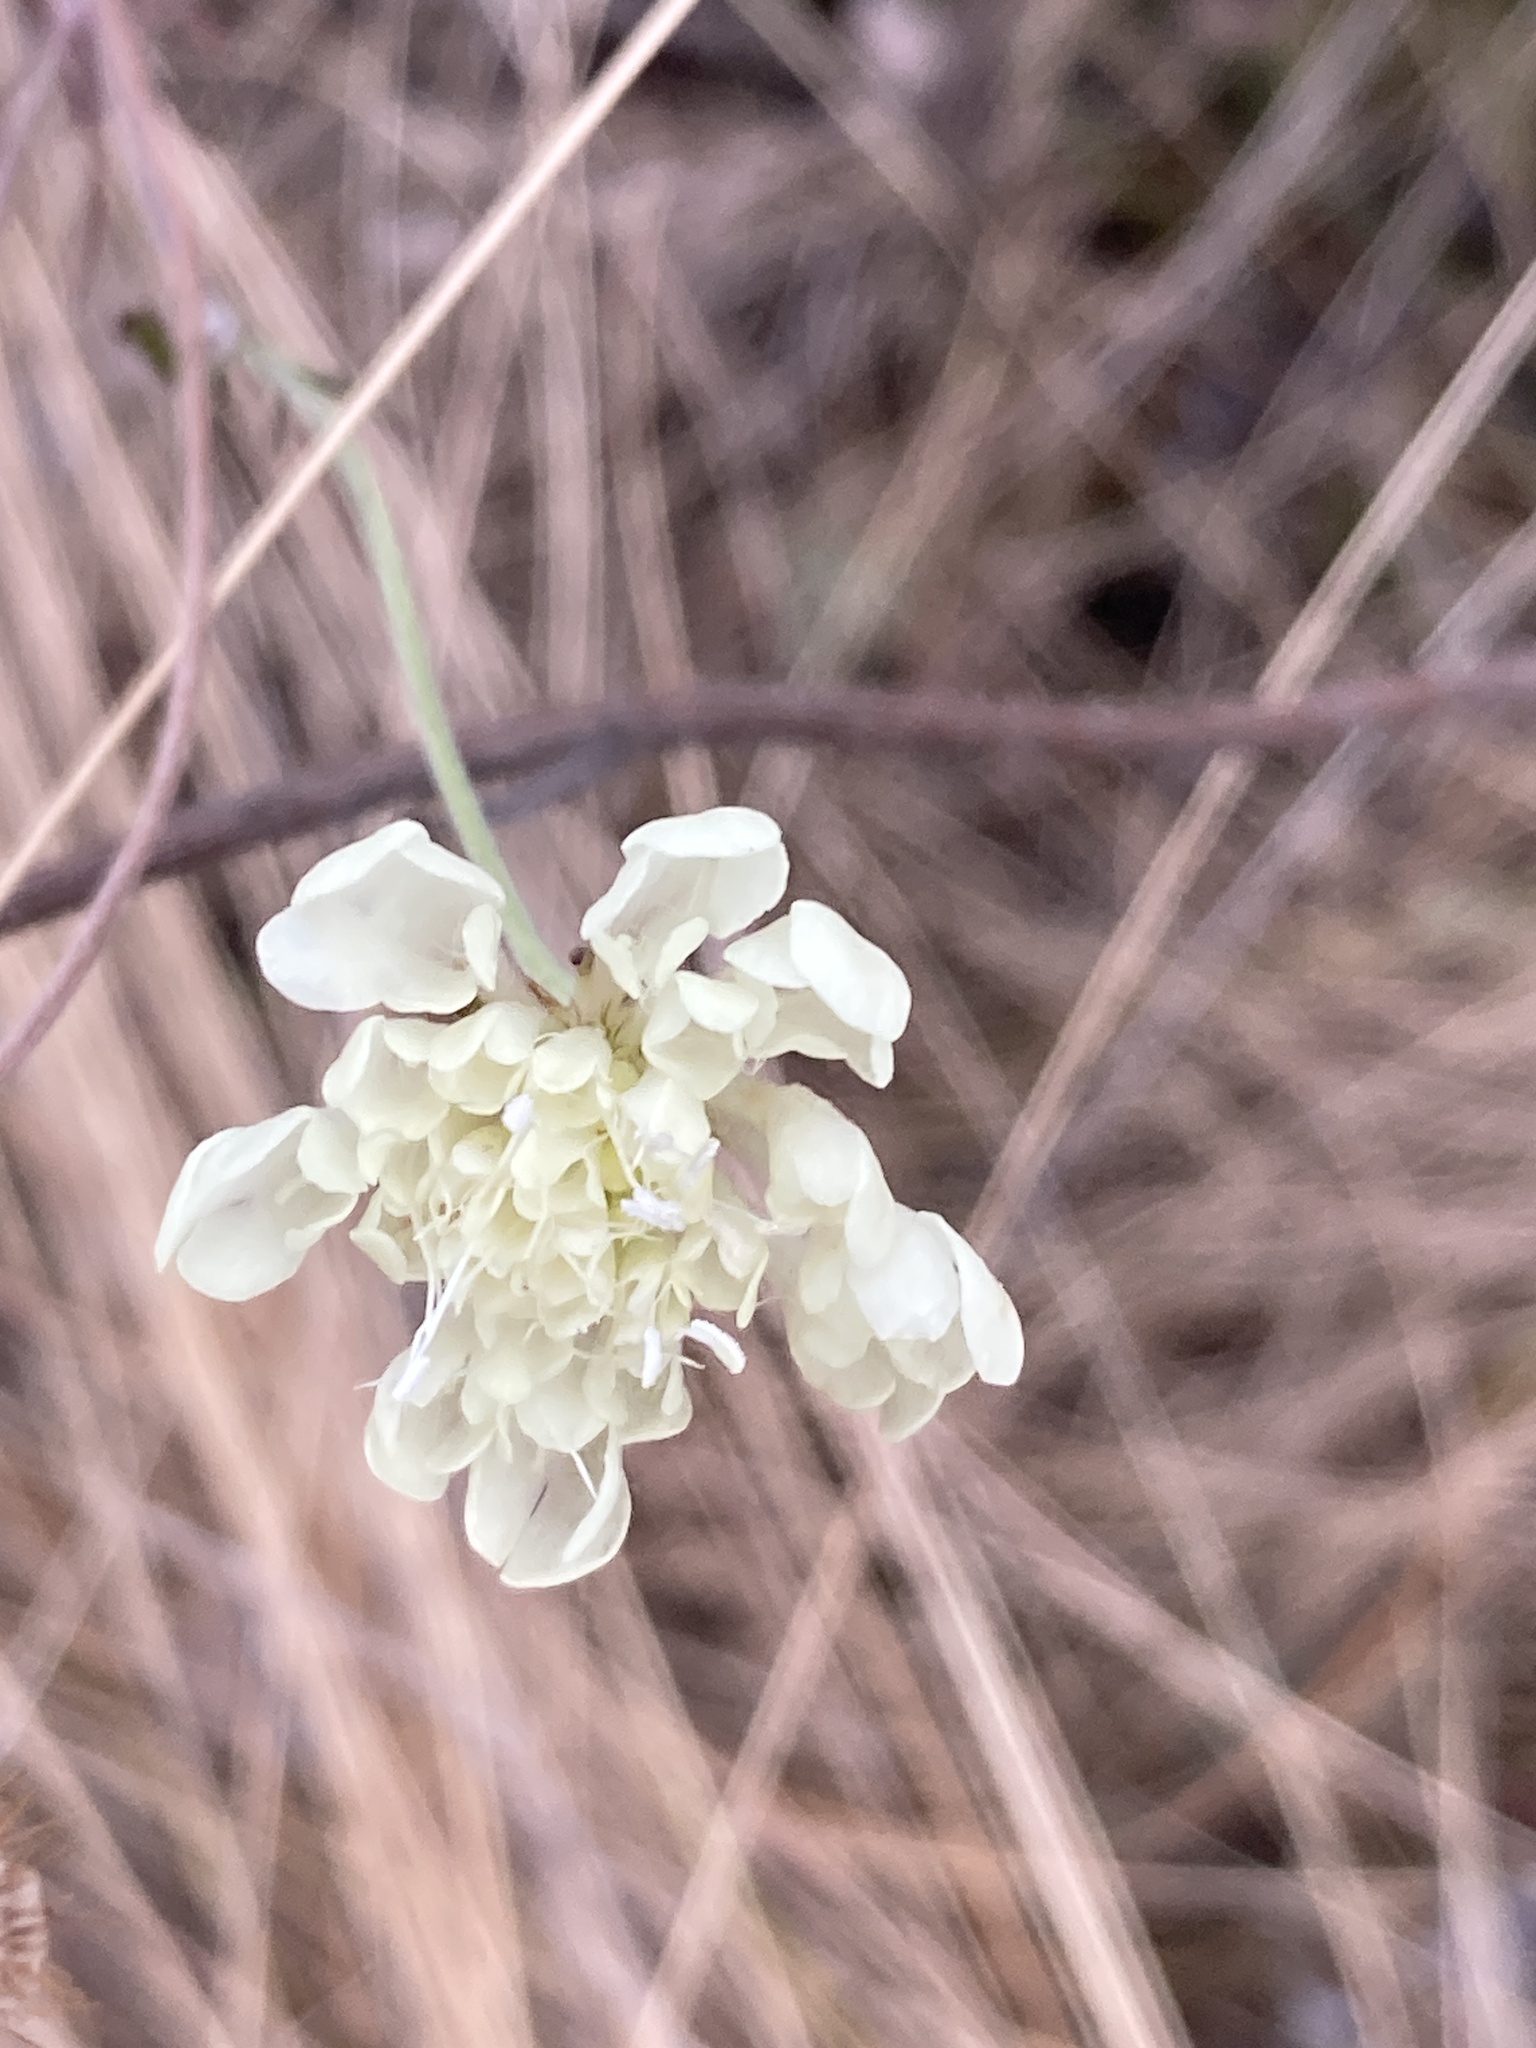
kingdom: Plantae
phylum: Tracheophyta
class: Magnoliopsida
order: Dipsacales
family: Caprifoliaceae
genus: Scabiosa
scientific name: Scabiosa ochroleuca
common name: Cream pincushions
